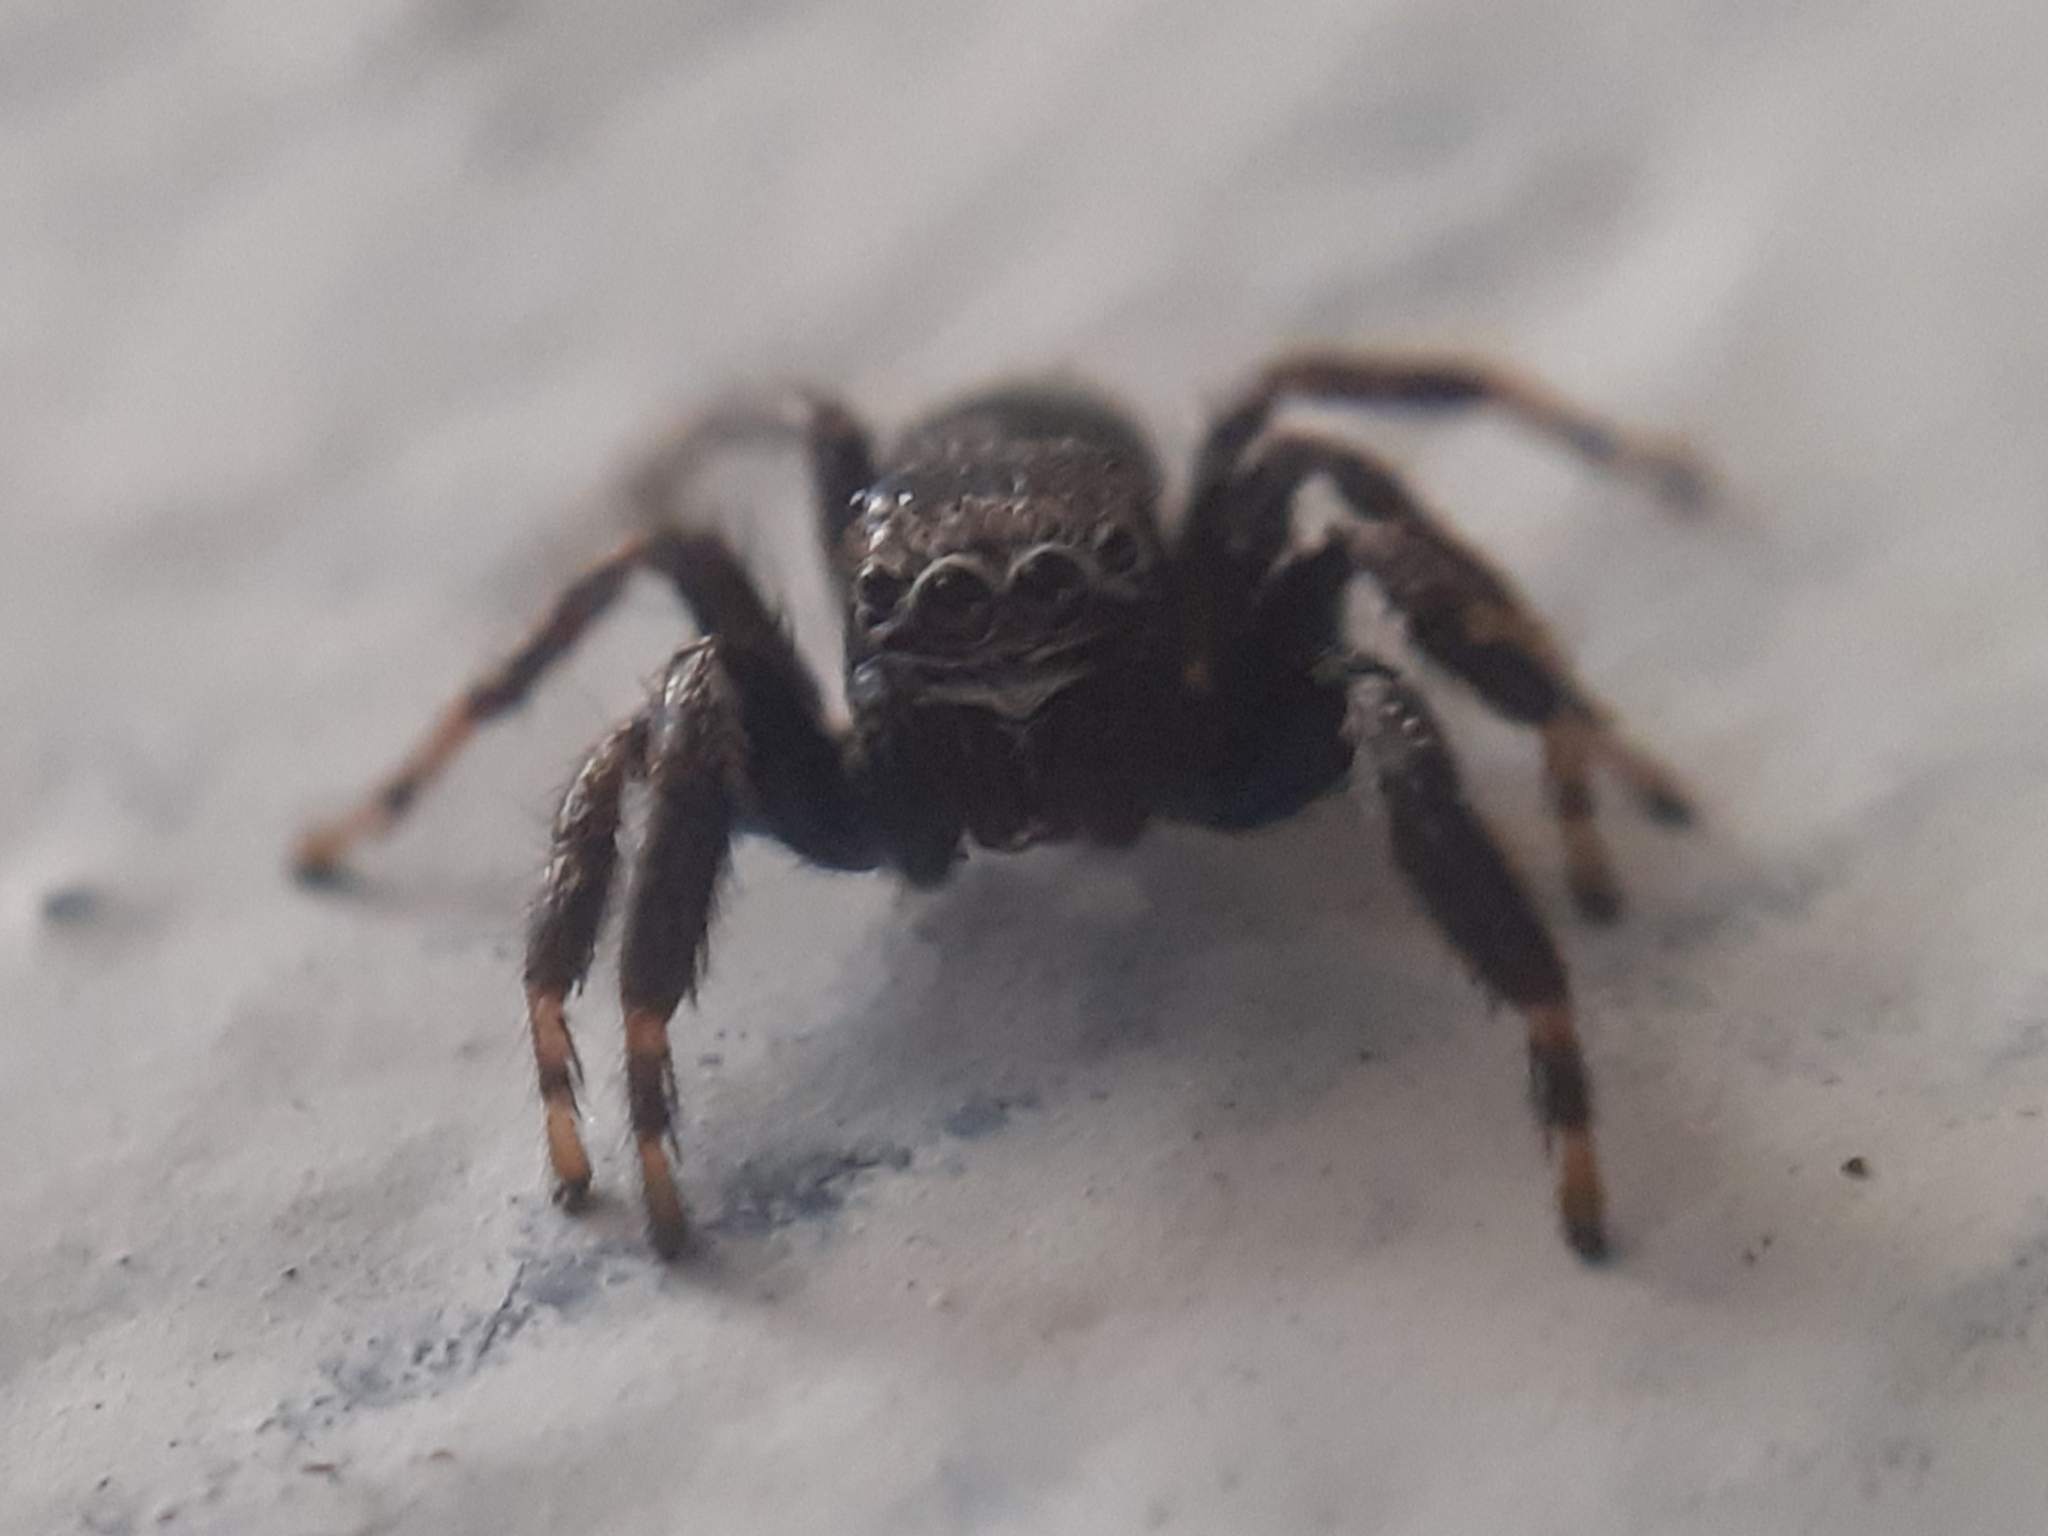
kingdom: Animalia
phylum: Arthropoda
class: Arachnida
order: Araneae
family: Salticidae
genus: Evarcha
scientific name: Evarcha arcuata
